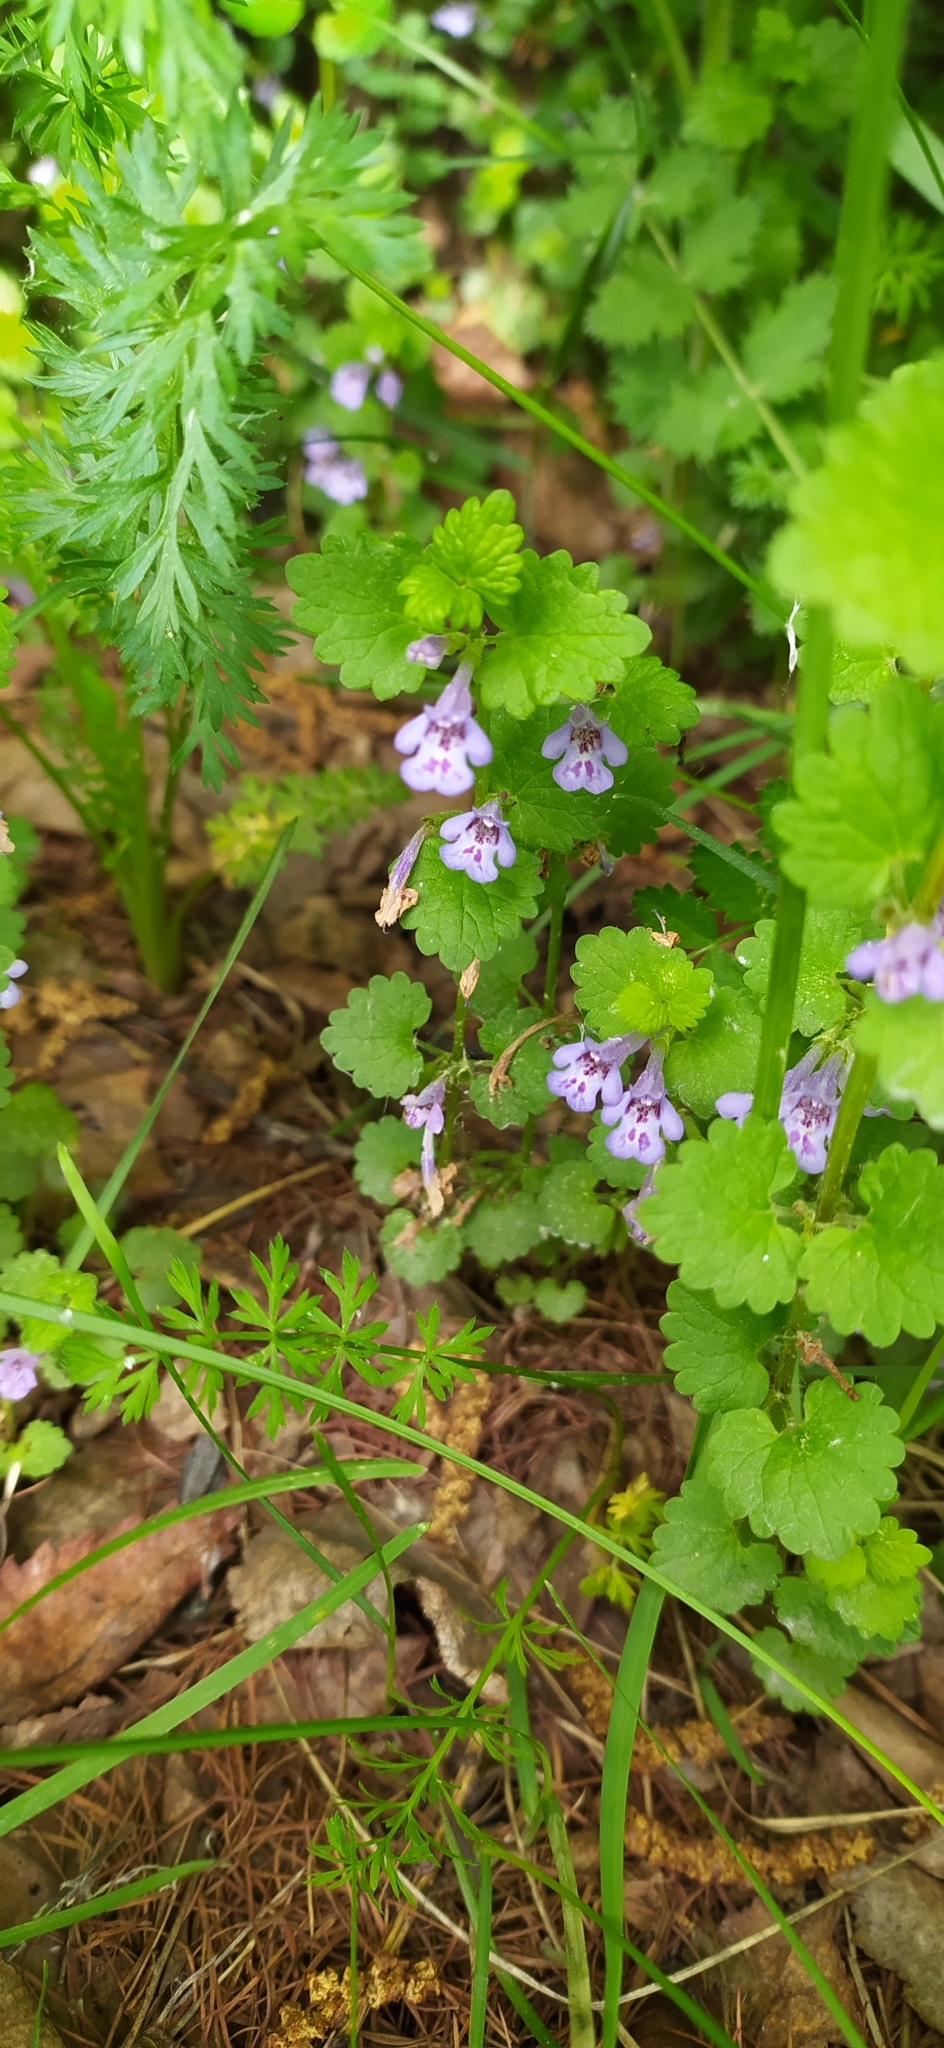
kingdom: Plantae
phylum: Tracheophyta
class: Magnoliopsida
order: Lamiales
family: Lamiaceae
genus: Glechoma
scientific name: Glechoma hederacea
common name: Ground ivy
